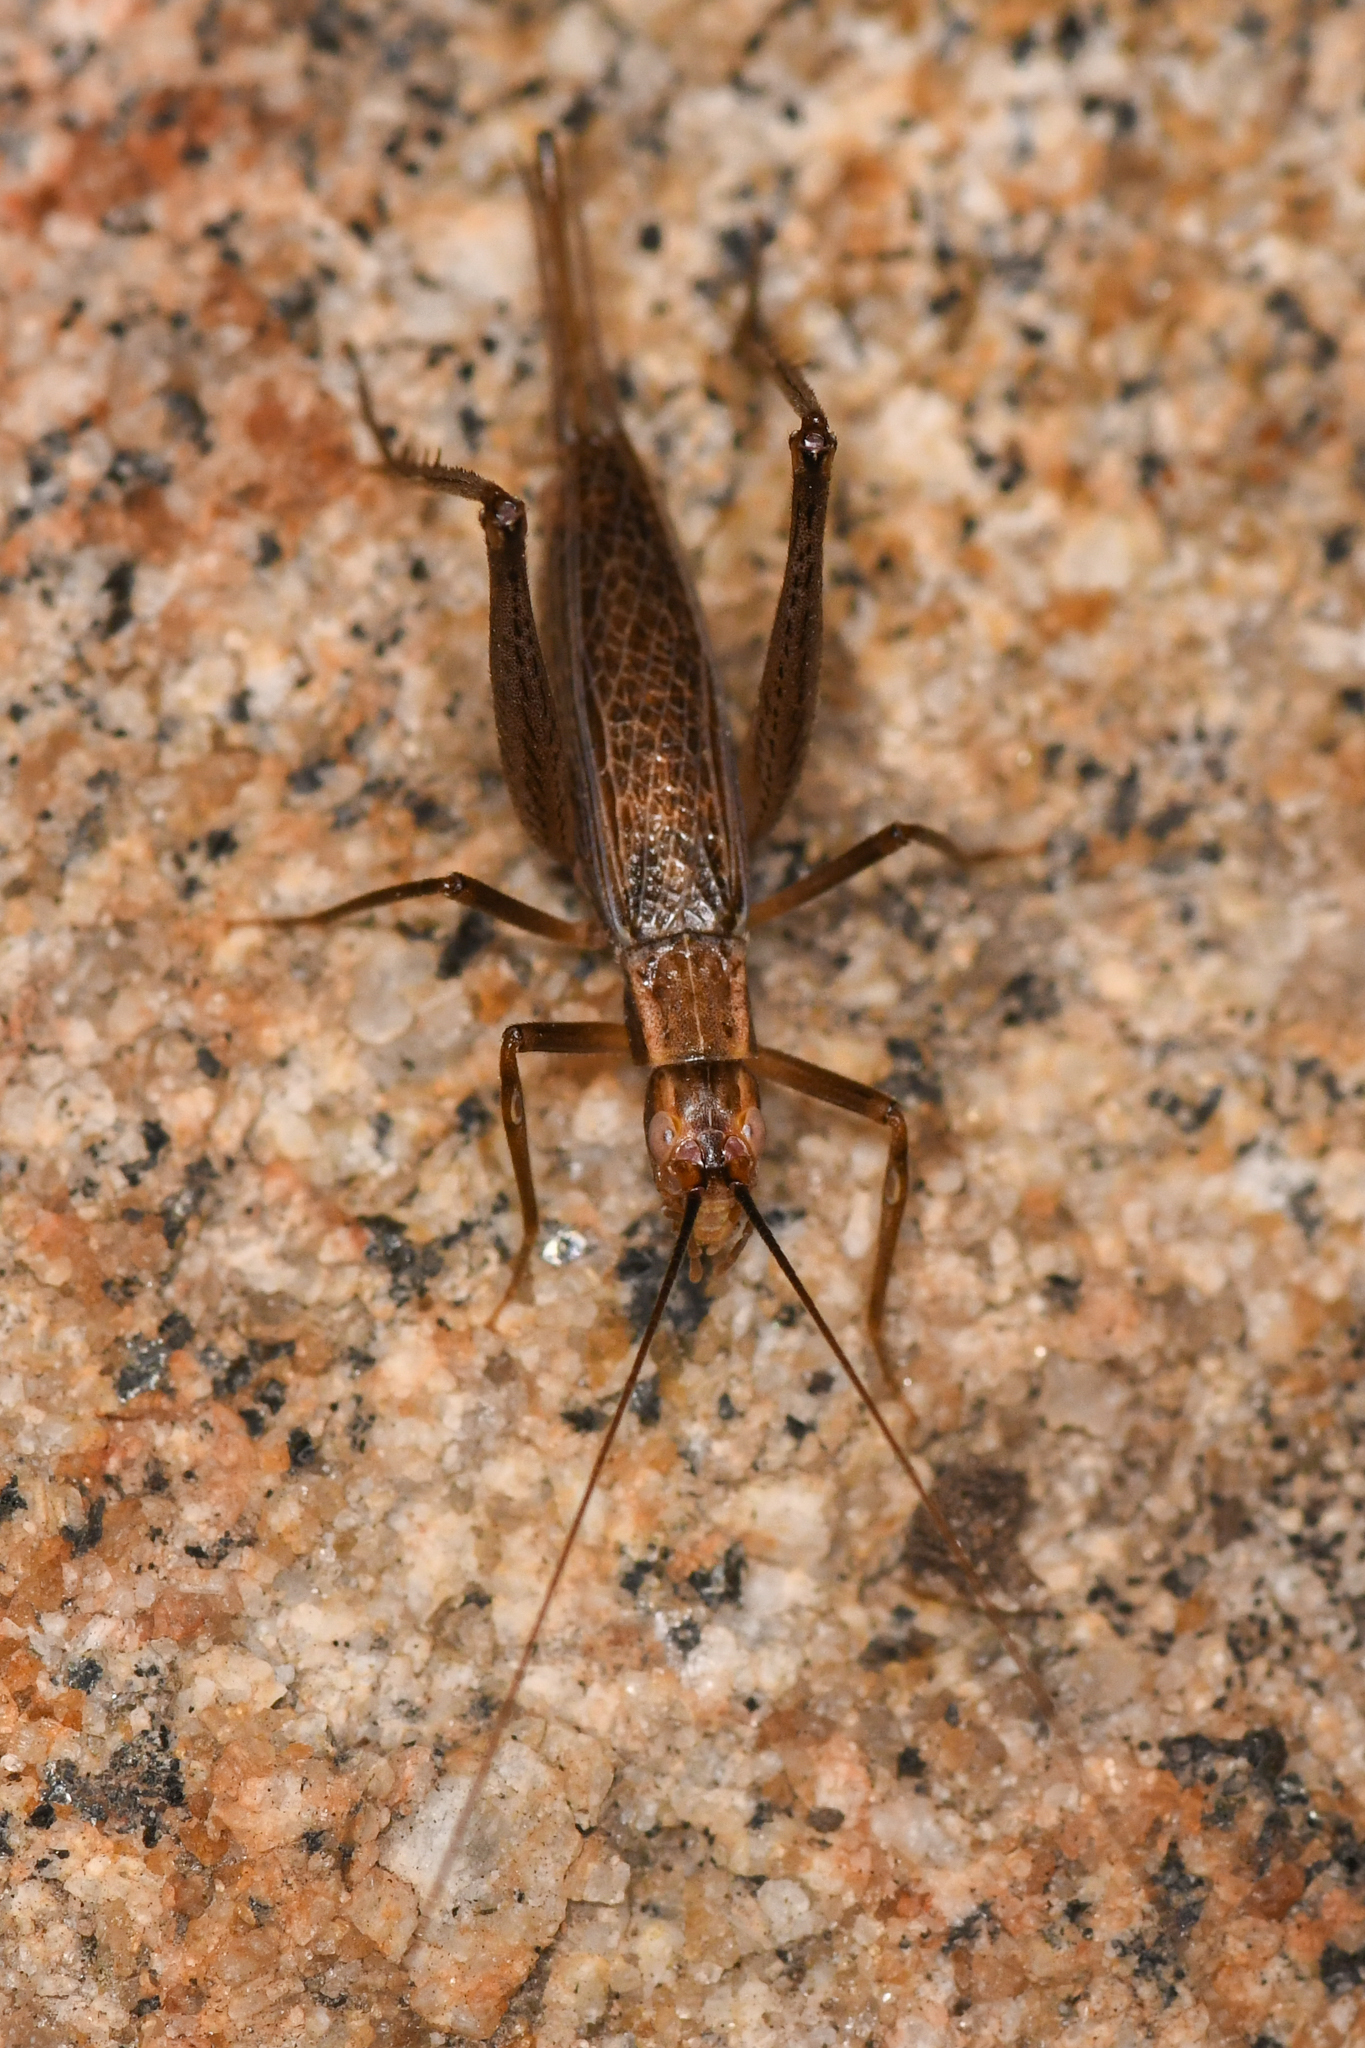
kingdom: Animalia
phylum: Arthropoda
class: Insecta
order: Orthoptera
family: Gryllidae
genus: Oecanthus
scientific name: Oecanthus californicus
